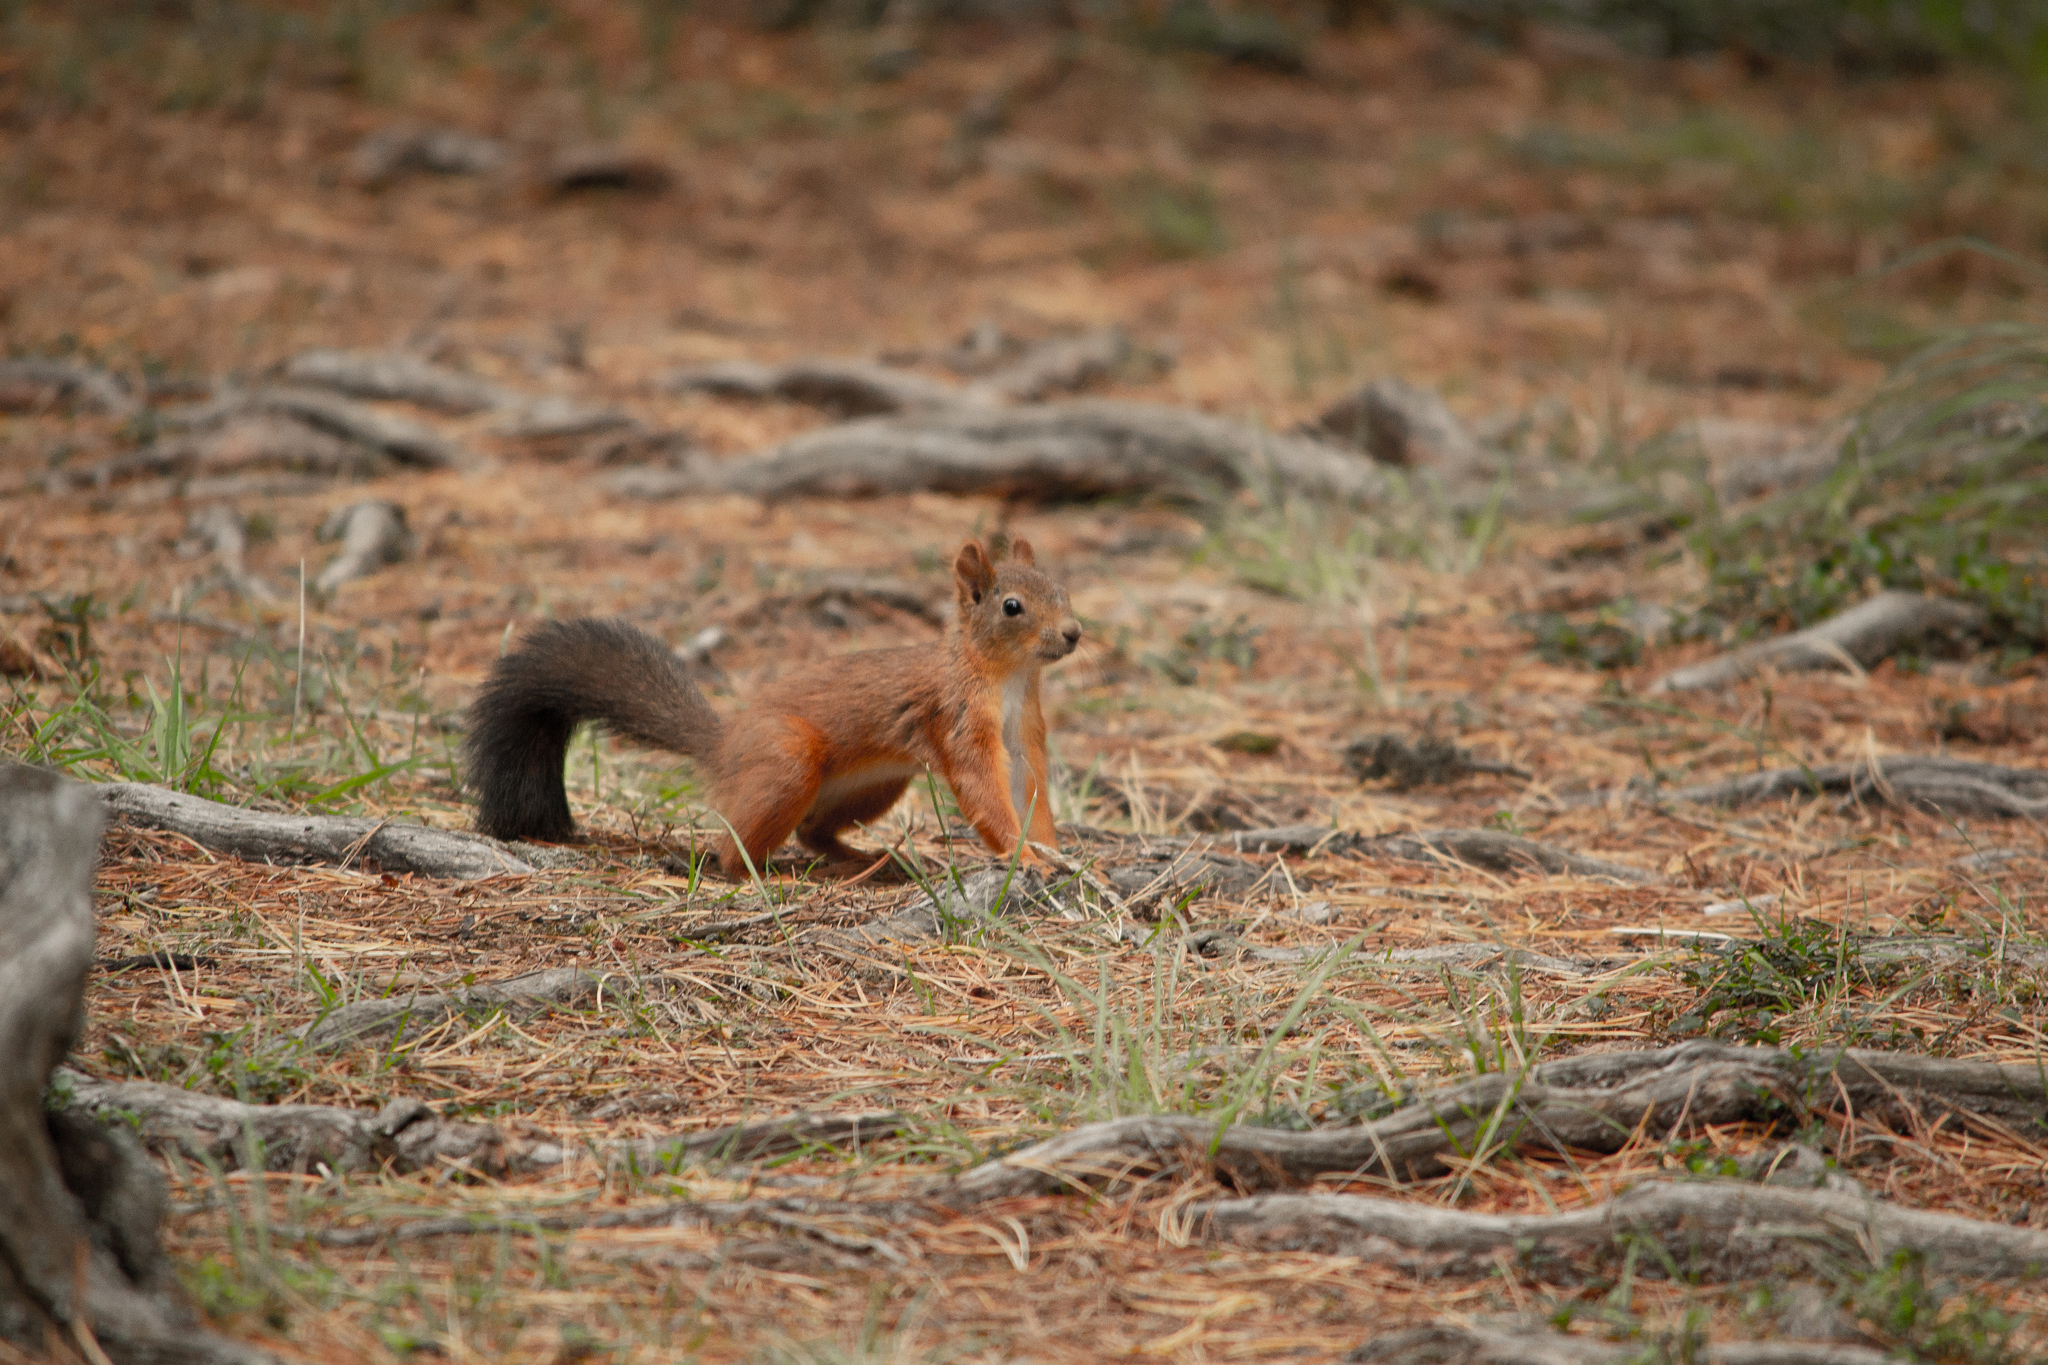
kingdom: Animalia
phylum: Chordata
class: Mammalia
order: Rodentia
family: Sciuridae
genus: Sciurus
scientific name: Sciurus vulgaris
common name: Eurasian red squirrel
